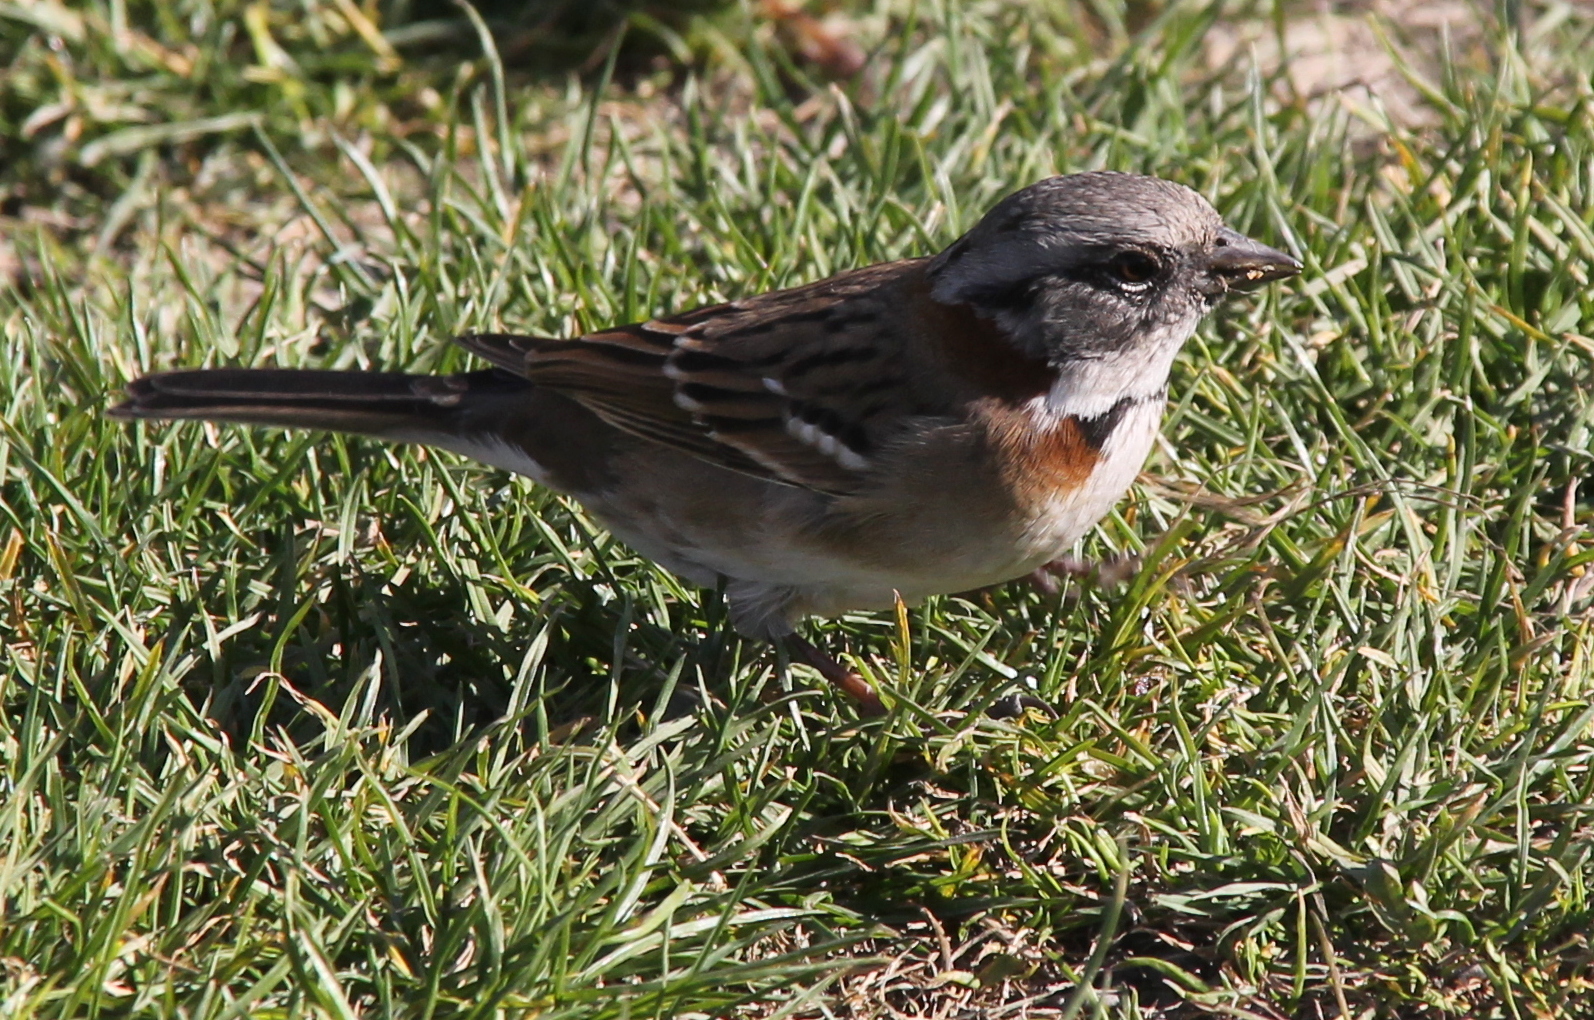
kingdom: Animalia
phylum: Chordata
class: Aves
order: Passeriformes
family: Passerellidae
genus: Zonotrichia
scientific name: Zonotrichia capensis
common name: Rufous-collared sparrow
